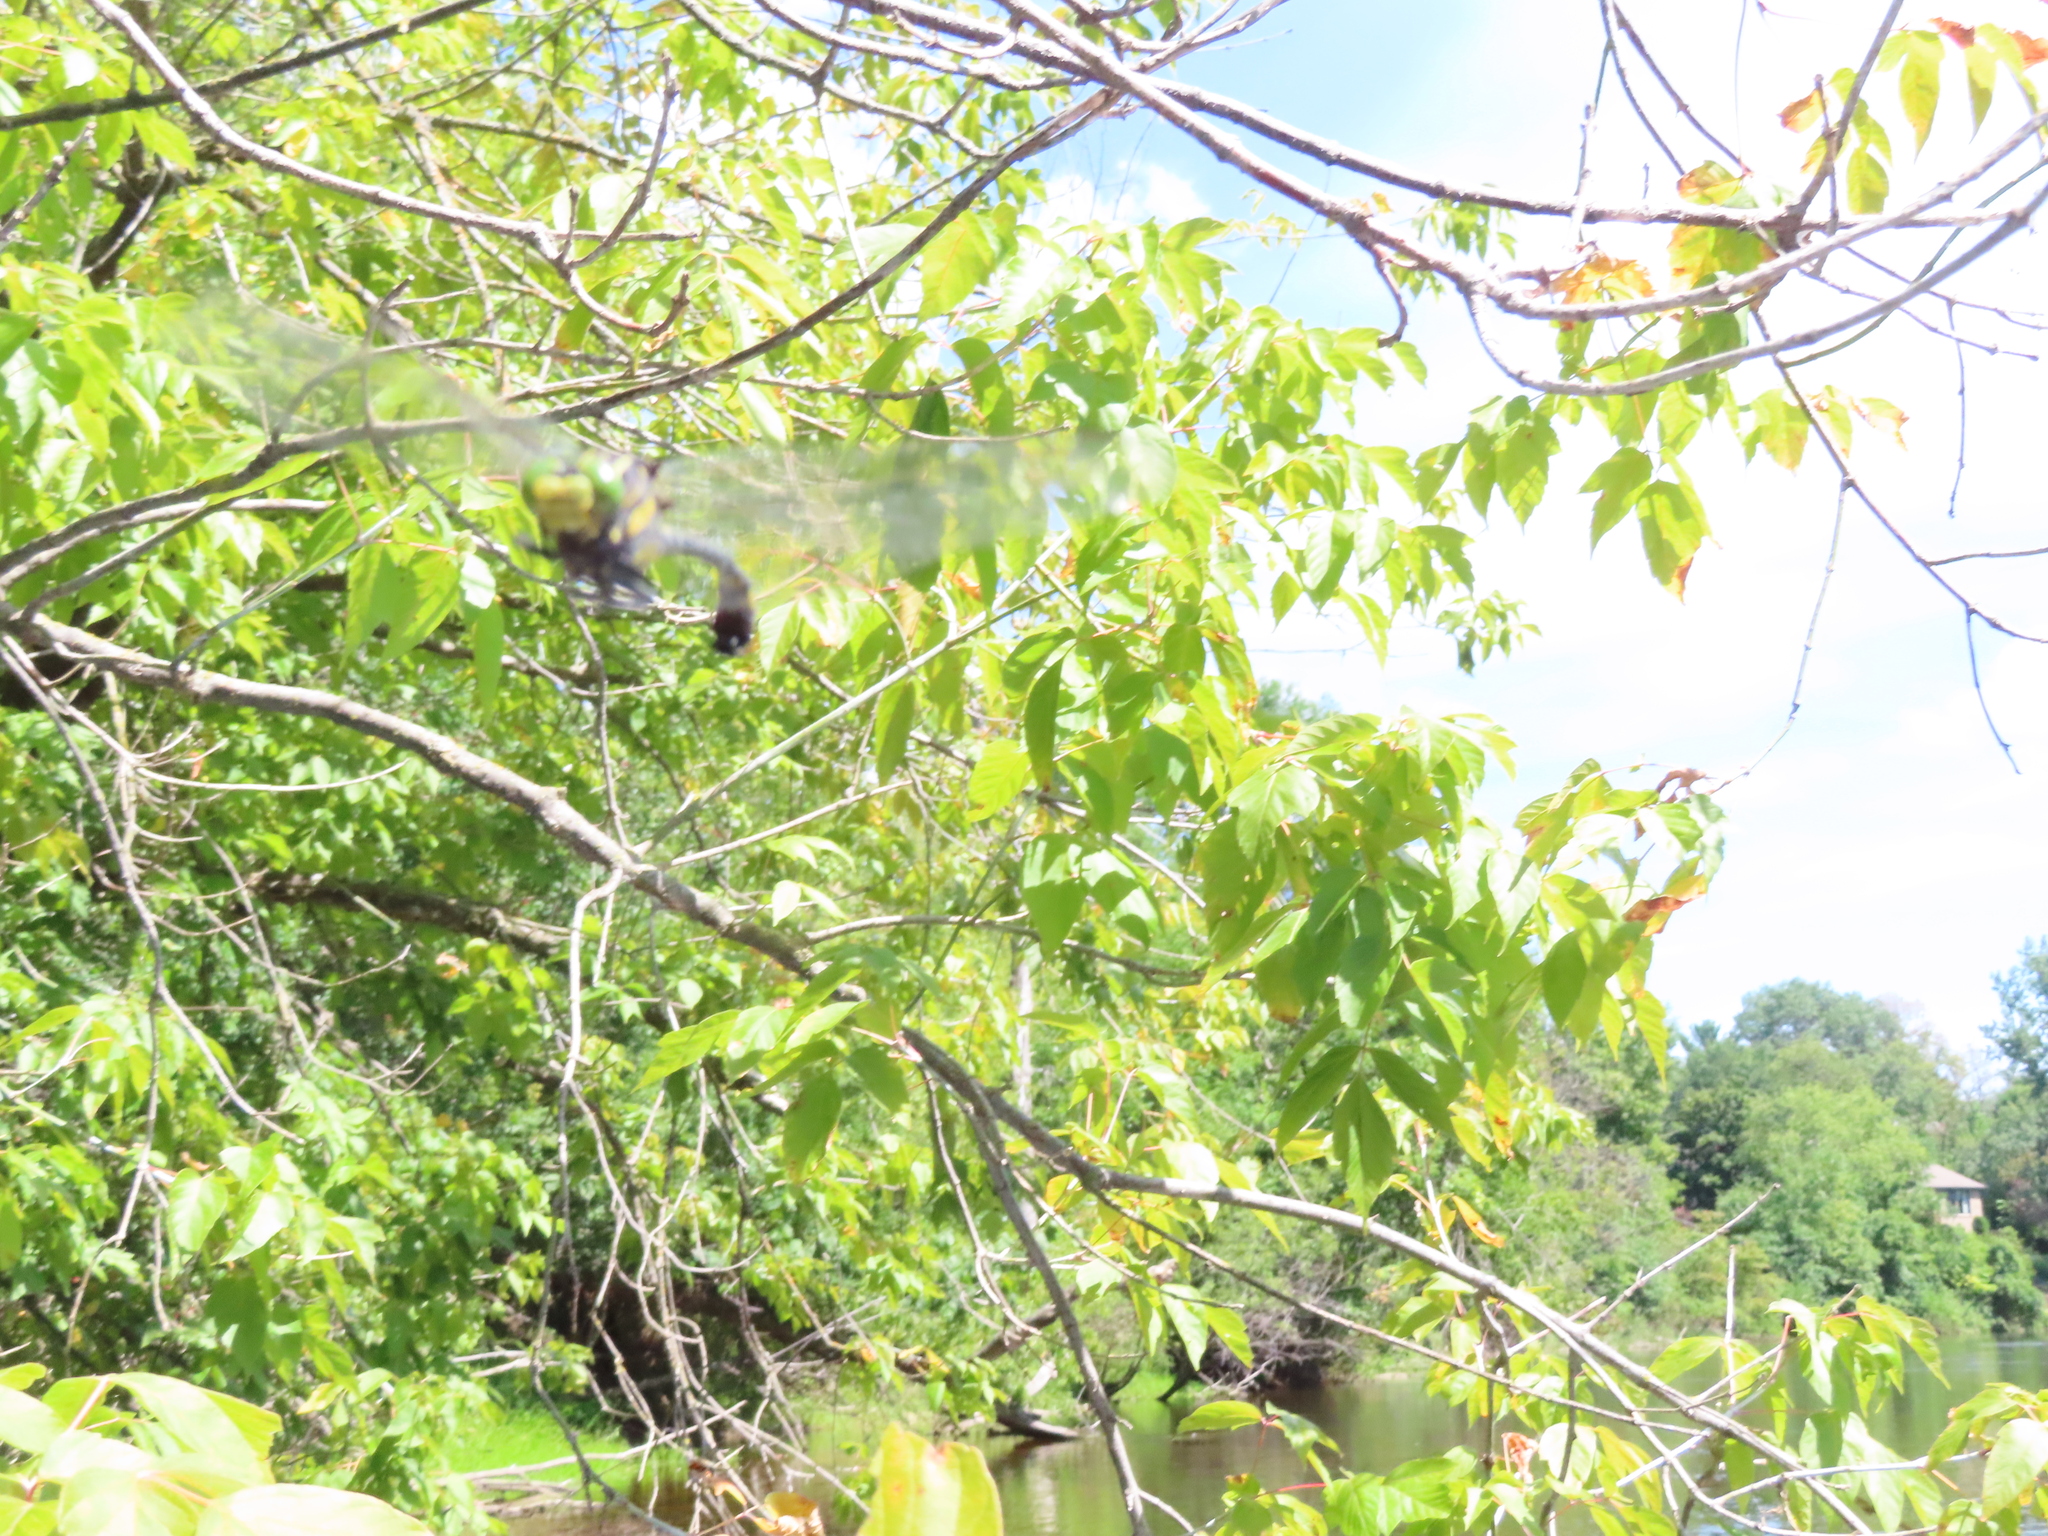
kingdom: Animalia
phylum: Arthropoda
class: Insecta
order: Odonata
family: Gomphidae
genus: Hagenius
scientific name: Hagenius brevistylus
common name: Dragonhunter
